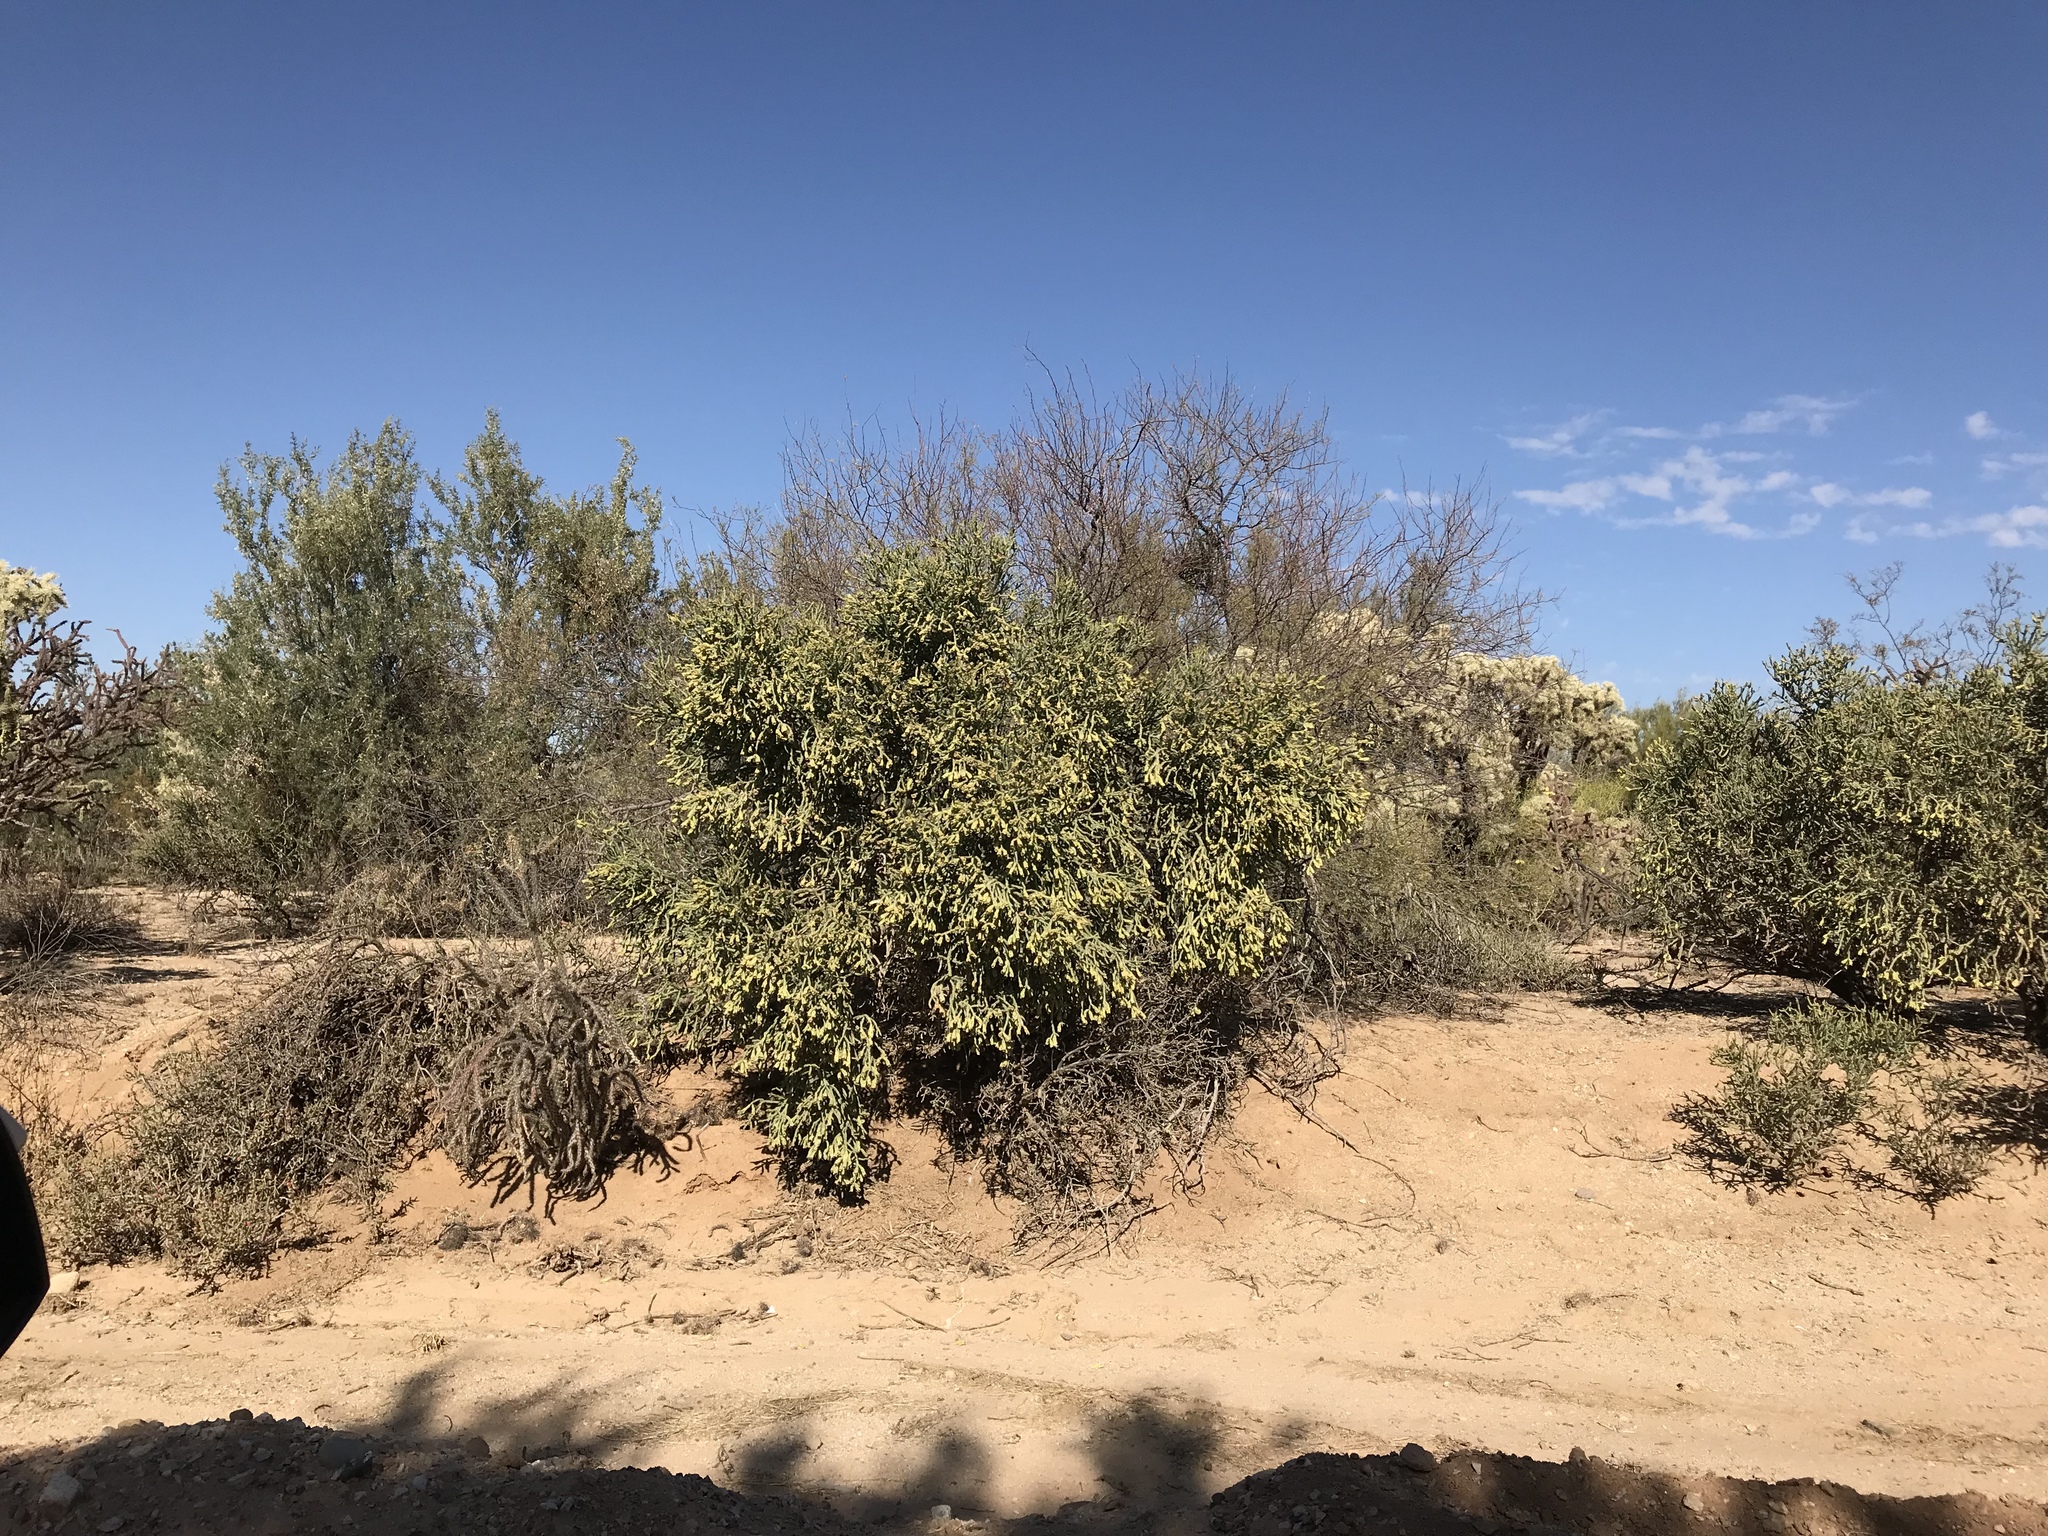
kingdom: Plantae
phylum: Tracheophyta
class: Magnoliopsida
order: Caryophyllales
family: Cactaceae
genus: Cylindropuntia
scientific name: Cylindropuntia arbuscula
